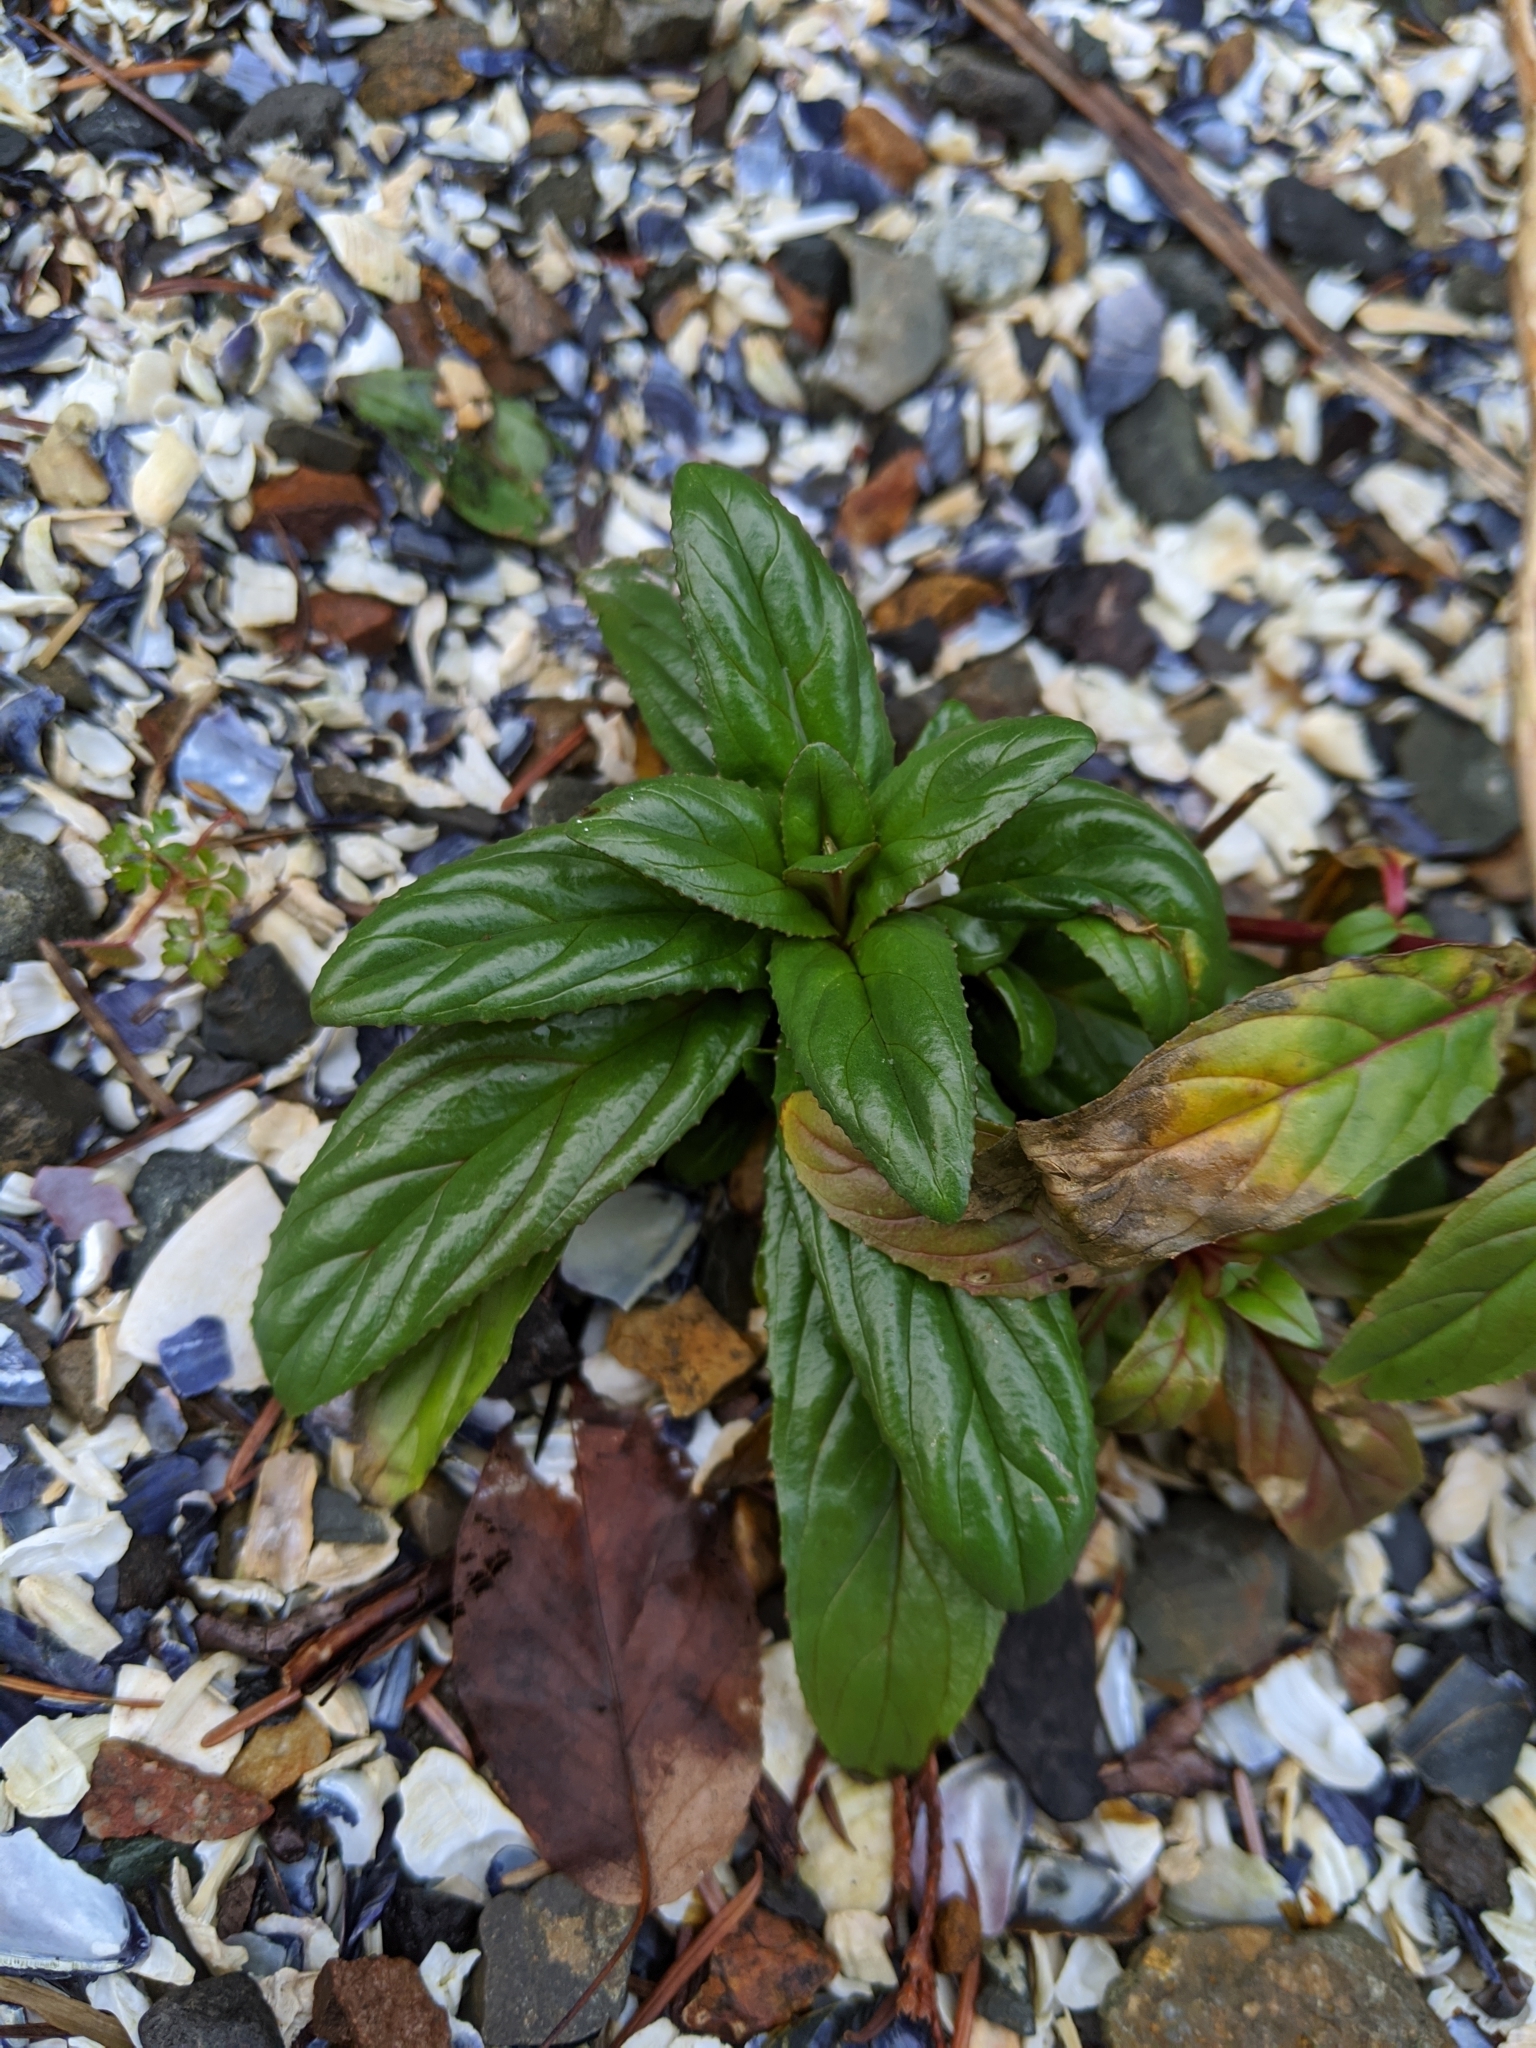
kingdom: Plantae
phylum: Tracheophyta
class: Magnoliopsida
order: Myrtales
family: Onagraceae
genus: Epilobium
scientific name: Epilobium ciliatum
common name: American willowherb
